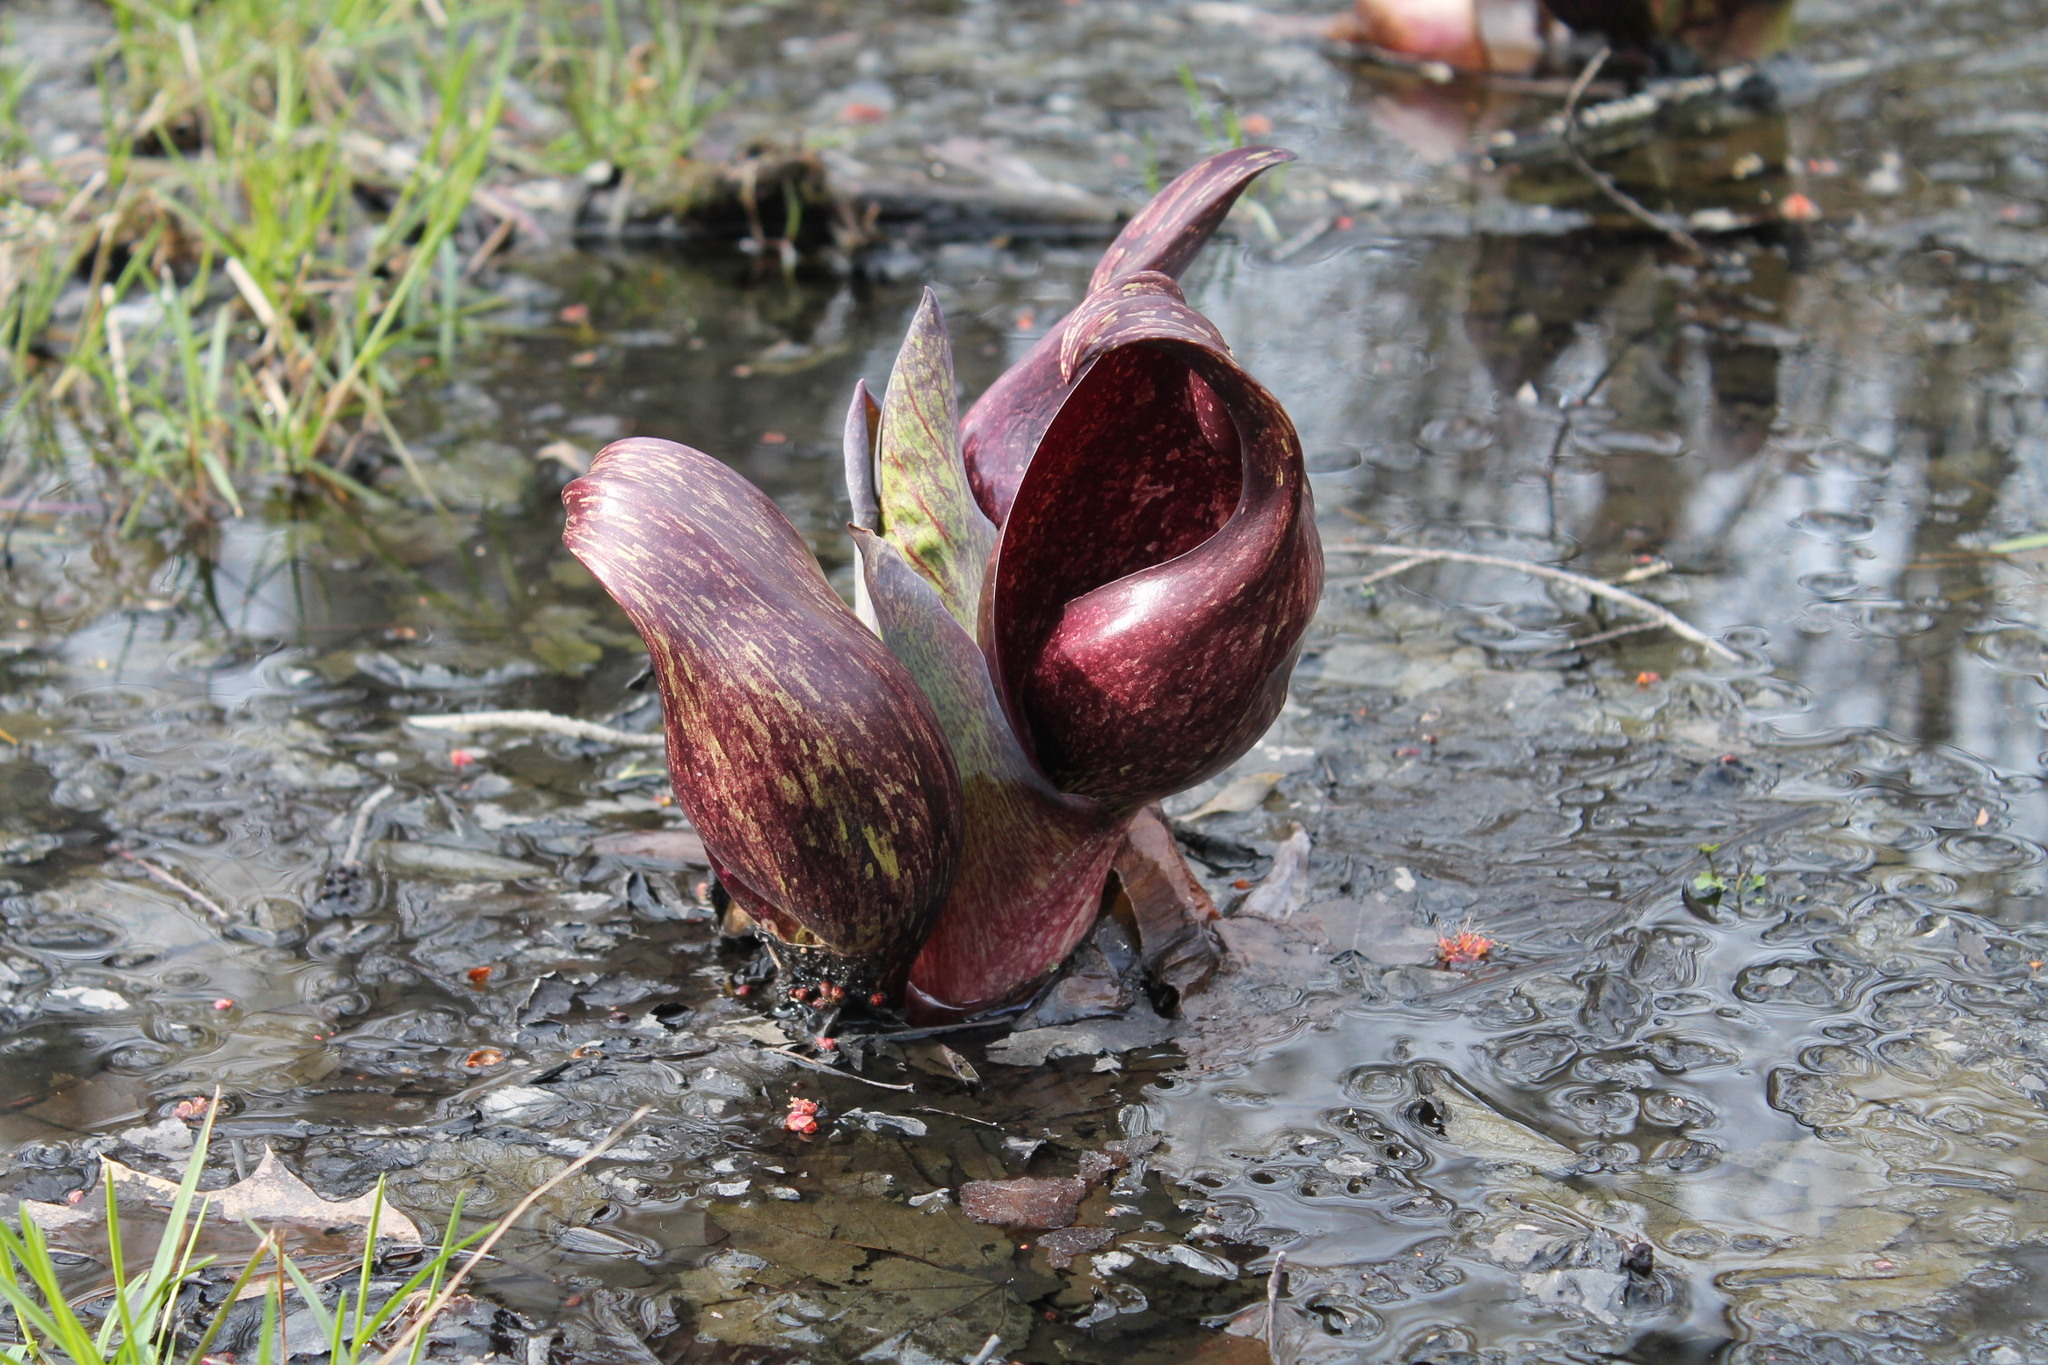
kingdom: Plantae
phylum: Tracheophyta
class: Liliopsida
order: Alismatales
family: Araceae
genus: Symplocarpus
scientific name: Symplocarpus foetidus
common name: Eastern skunk cabbage
